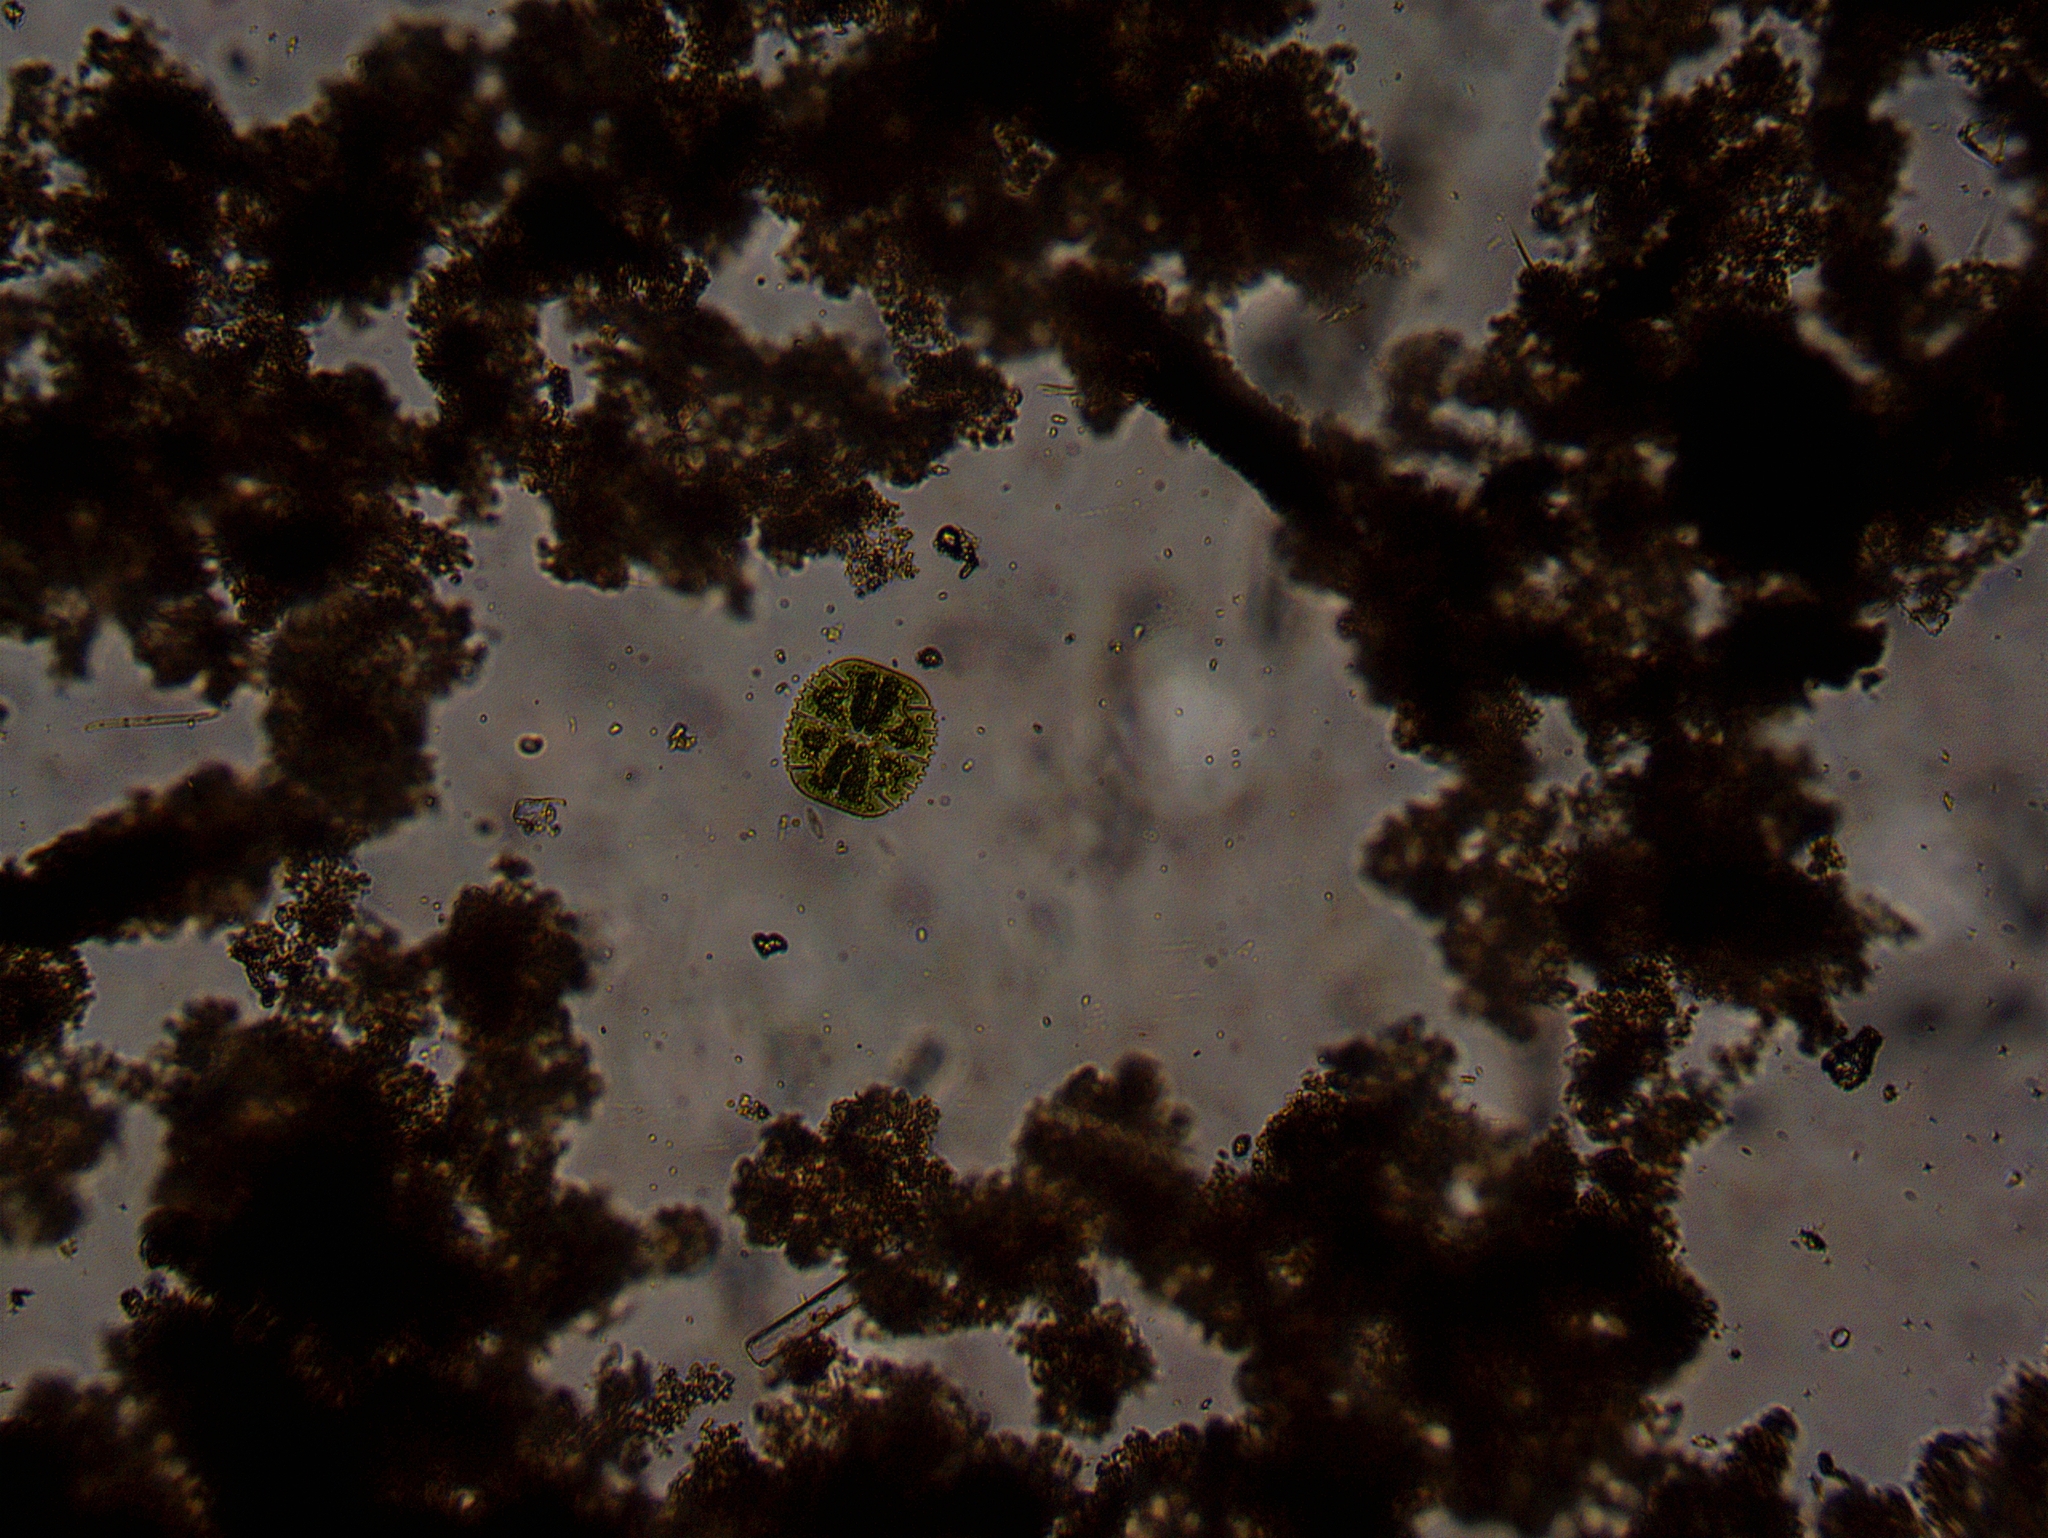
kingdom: Plantae
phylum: Charophyta
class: Conjugatophyceae
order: Desmidiales
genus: Micrasterias
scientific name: Micrasterias truncata
